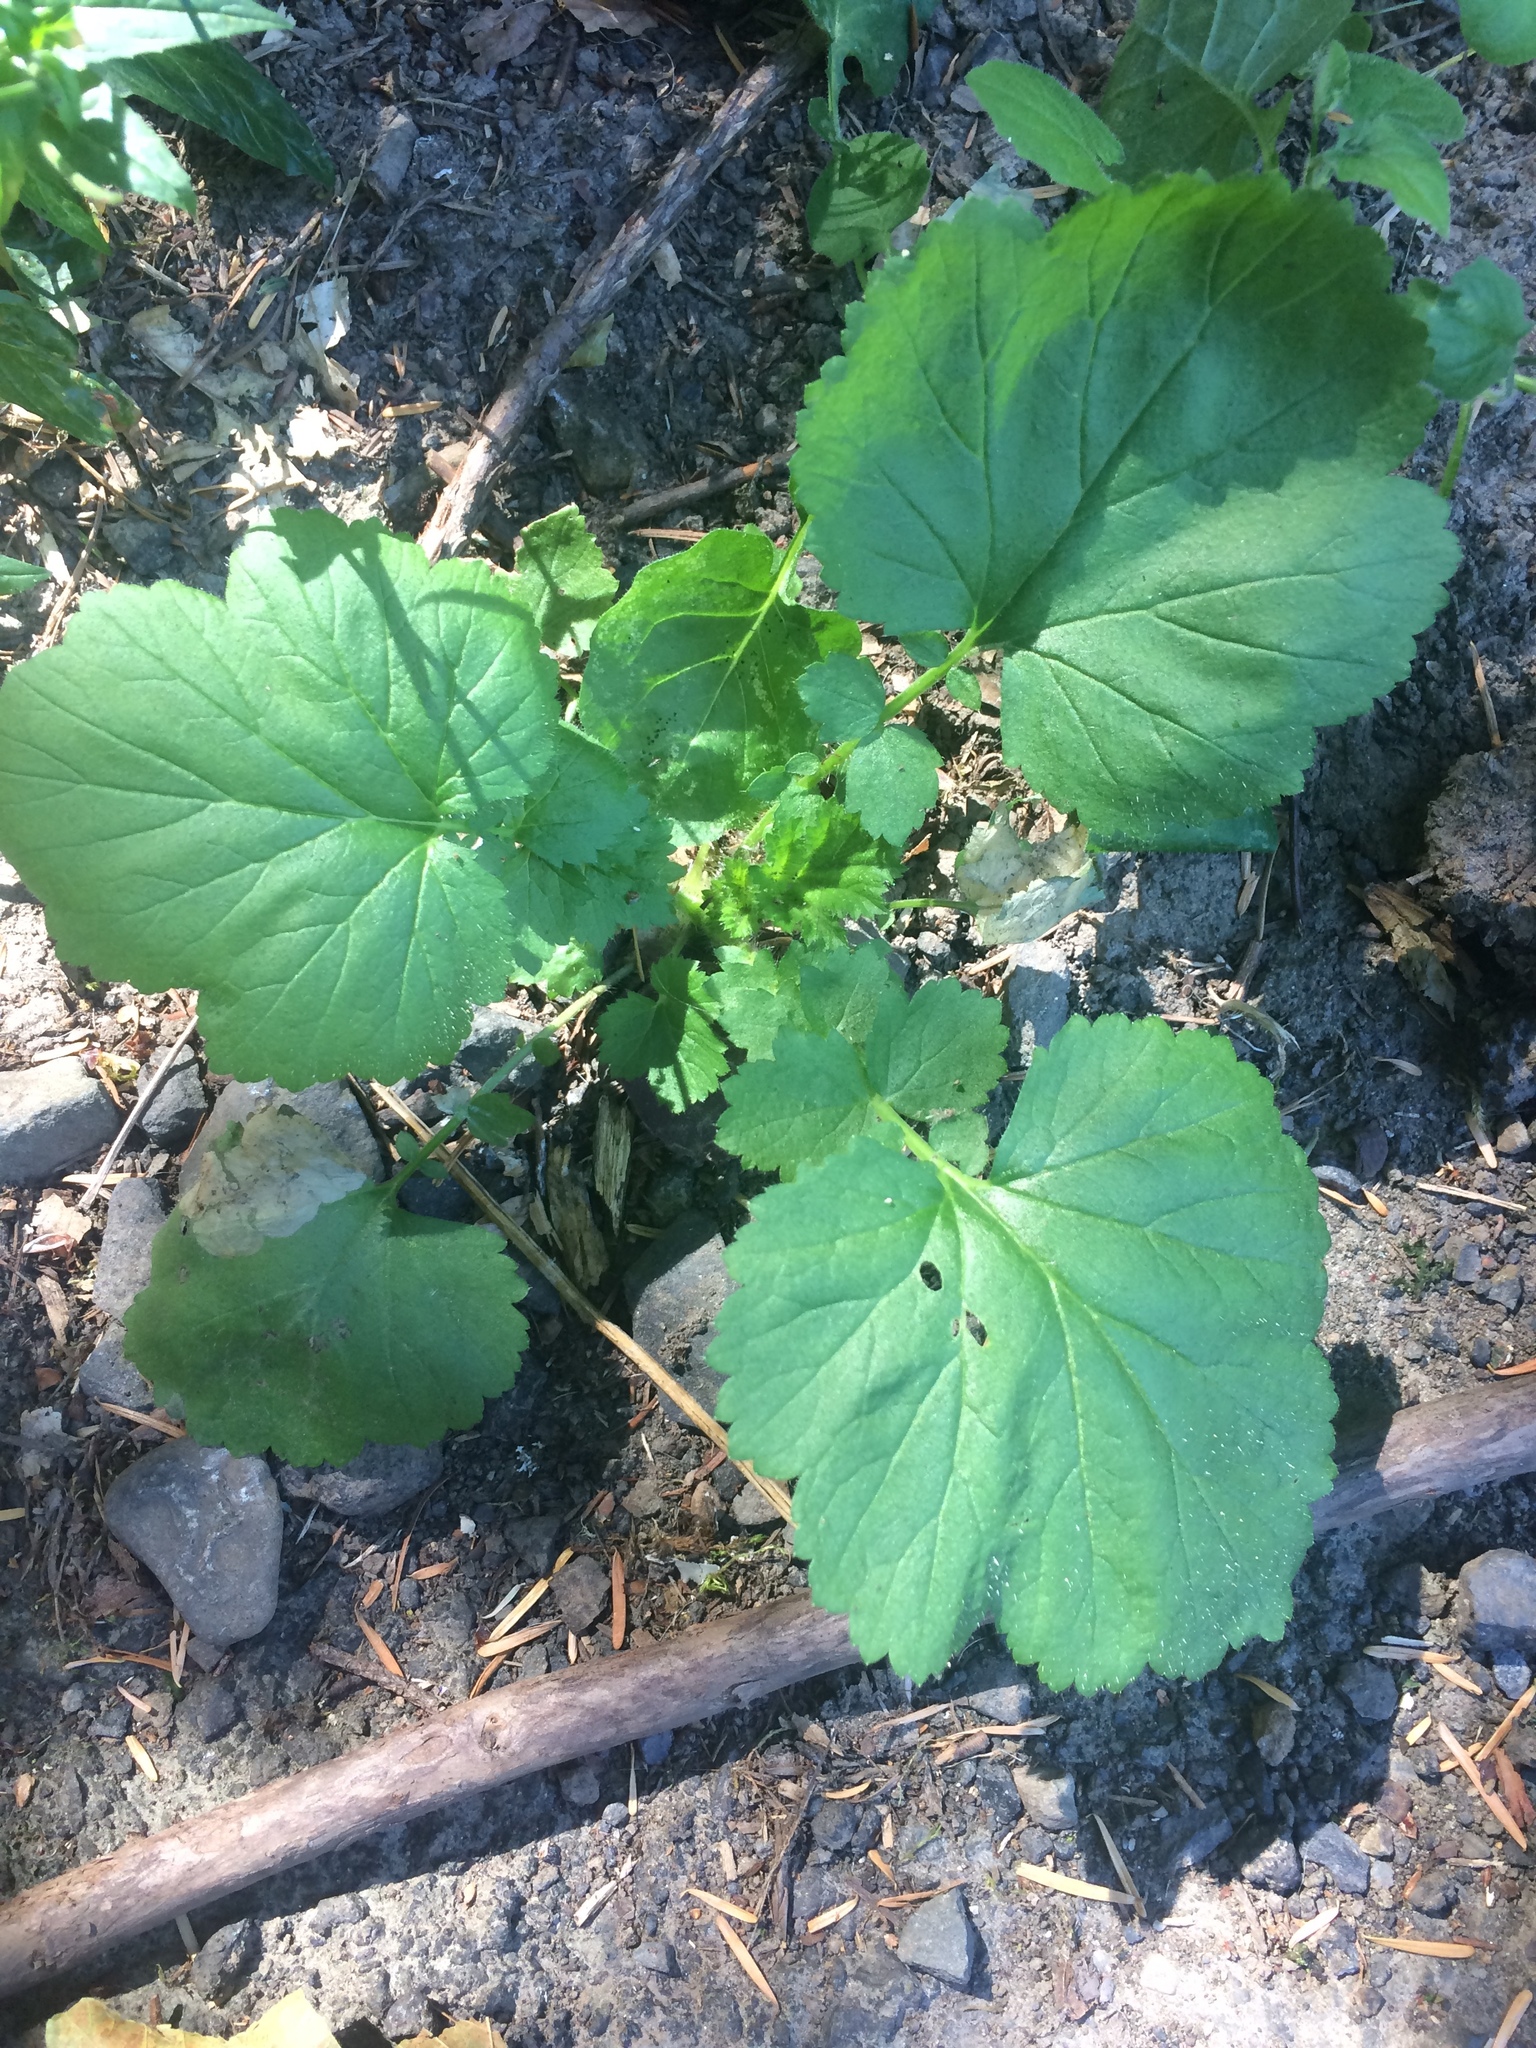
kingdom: Plantae
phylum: Tracheophyta
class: Magnoliopsida
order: Rosales
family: Rosaceae
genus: Geum
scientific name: Geum macrophyllum
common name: Large-leaved avens
